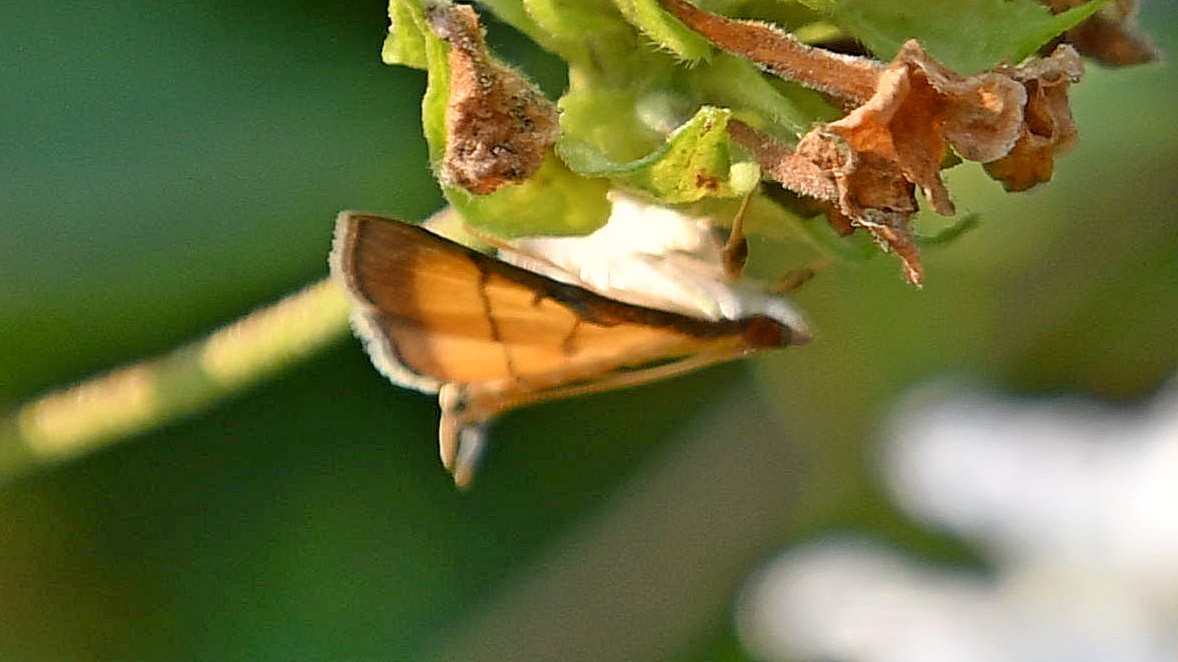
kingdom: Animalia
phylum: Arthropoda
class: Insecta
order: Lepidoptera
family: Crambidae
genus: Cnaphalocrocis
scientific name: Cnaphalocrocis medinalis
